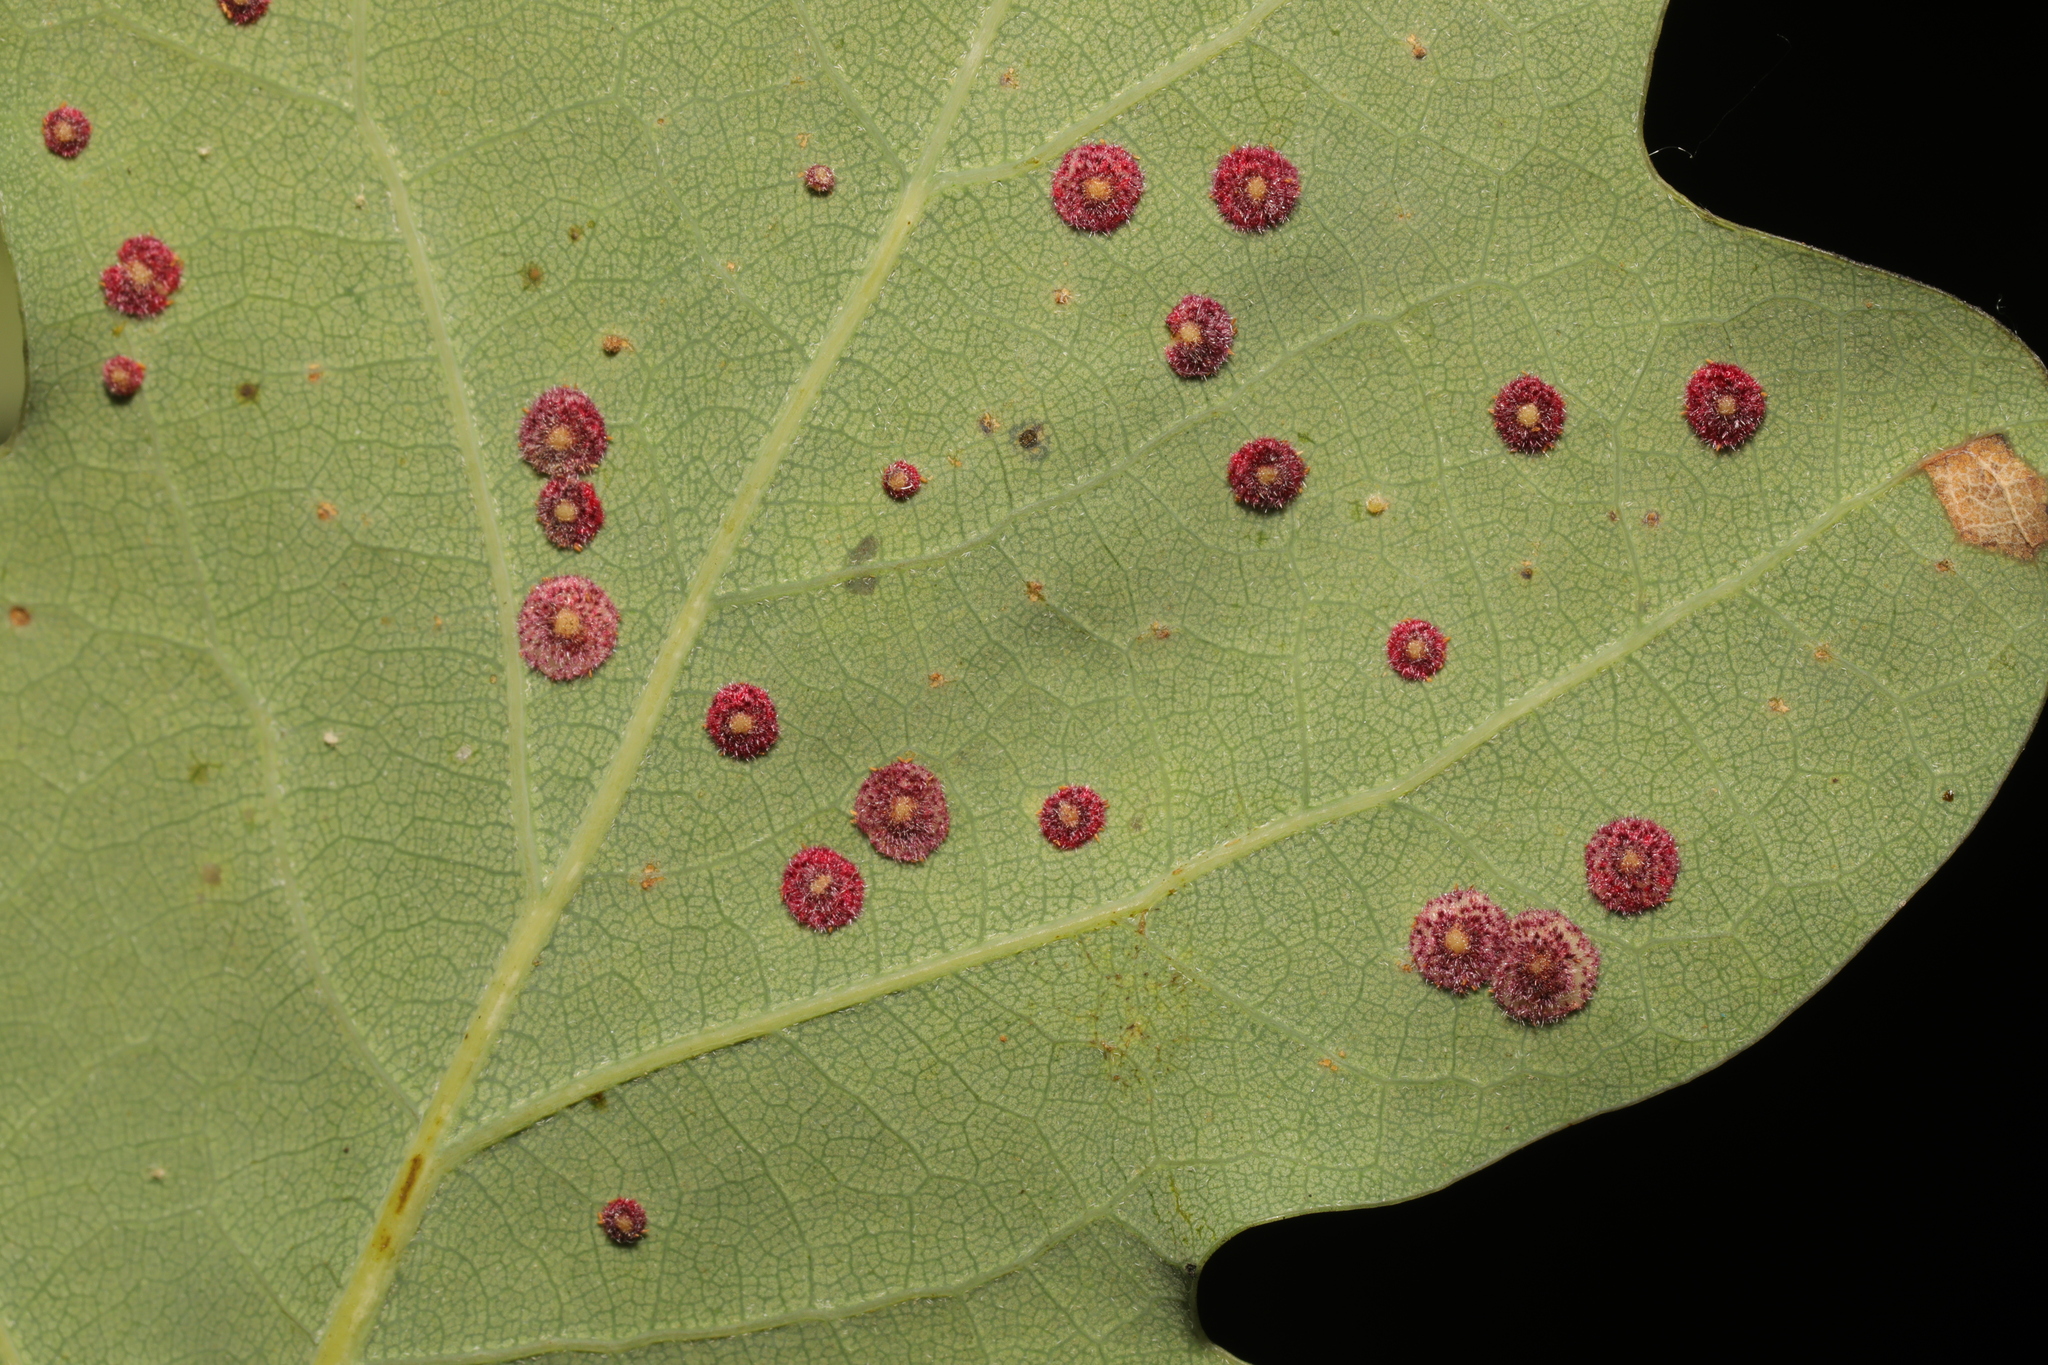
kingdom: Animalia
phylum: Arthropoda
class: Insecta
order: Hymenoptera
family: Cynipidae
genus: Neuroterus
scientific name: Neuroterus quercusbaccarum
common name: Common spangle gall
